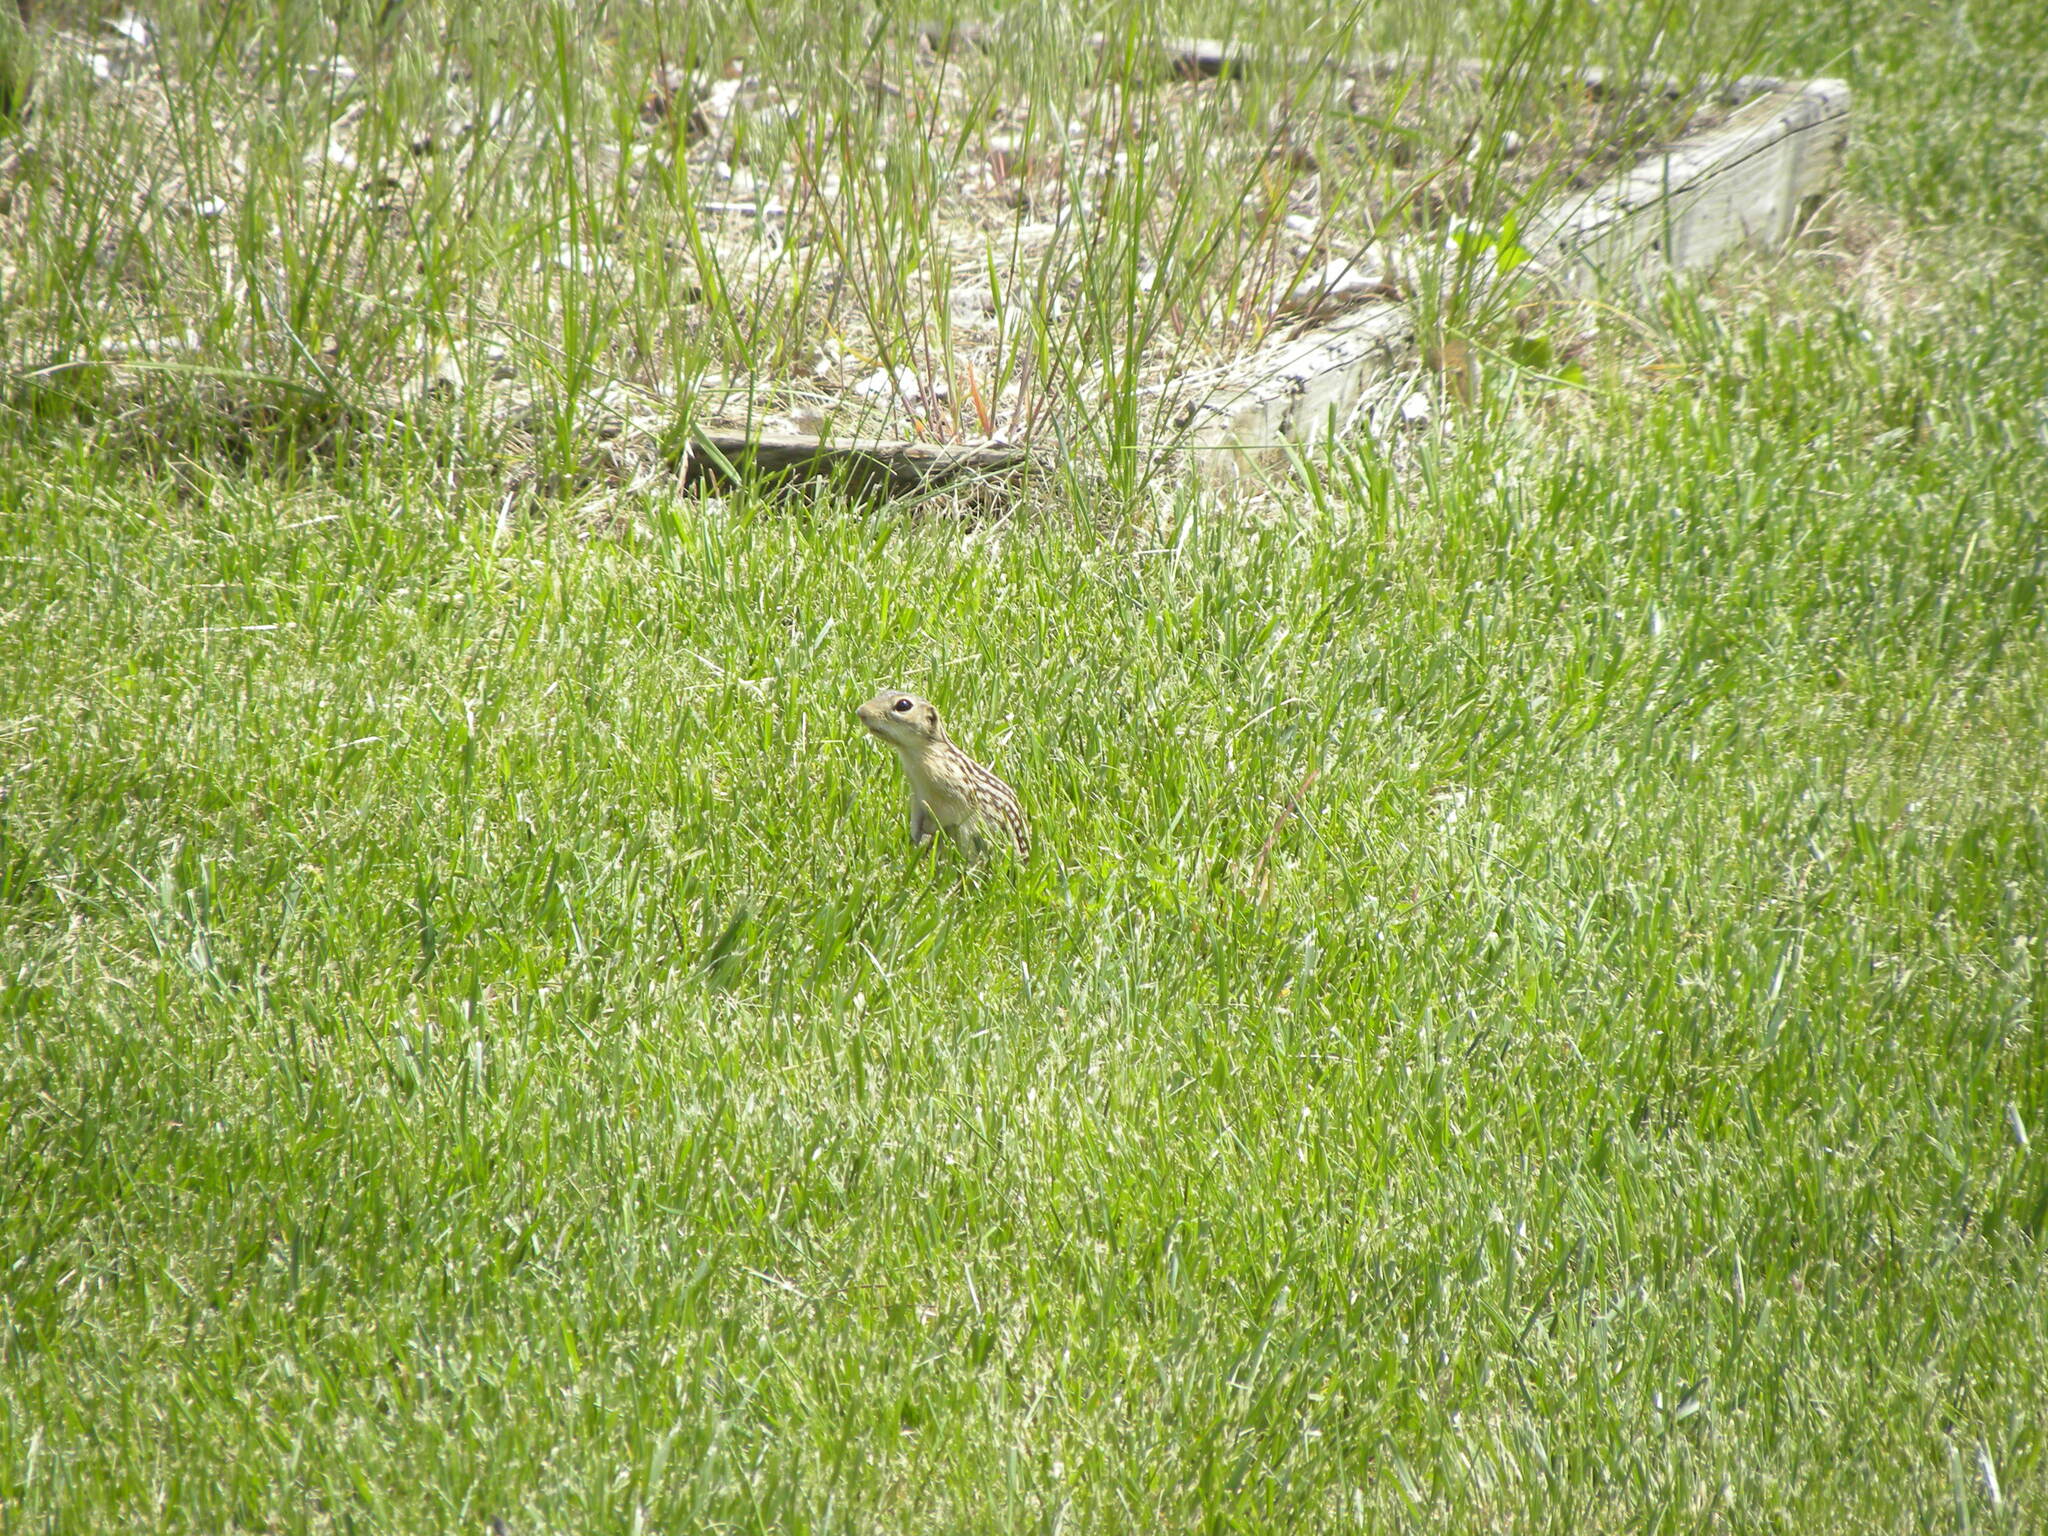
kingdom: Animalia
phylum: Chordata
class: Mammalia
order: Rodentia
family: Sciuridae
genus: Ictidomys
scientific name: Ictidomys tridecemlineatus
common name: Thirteen-lined ground squirrel
